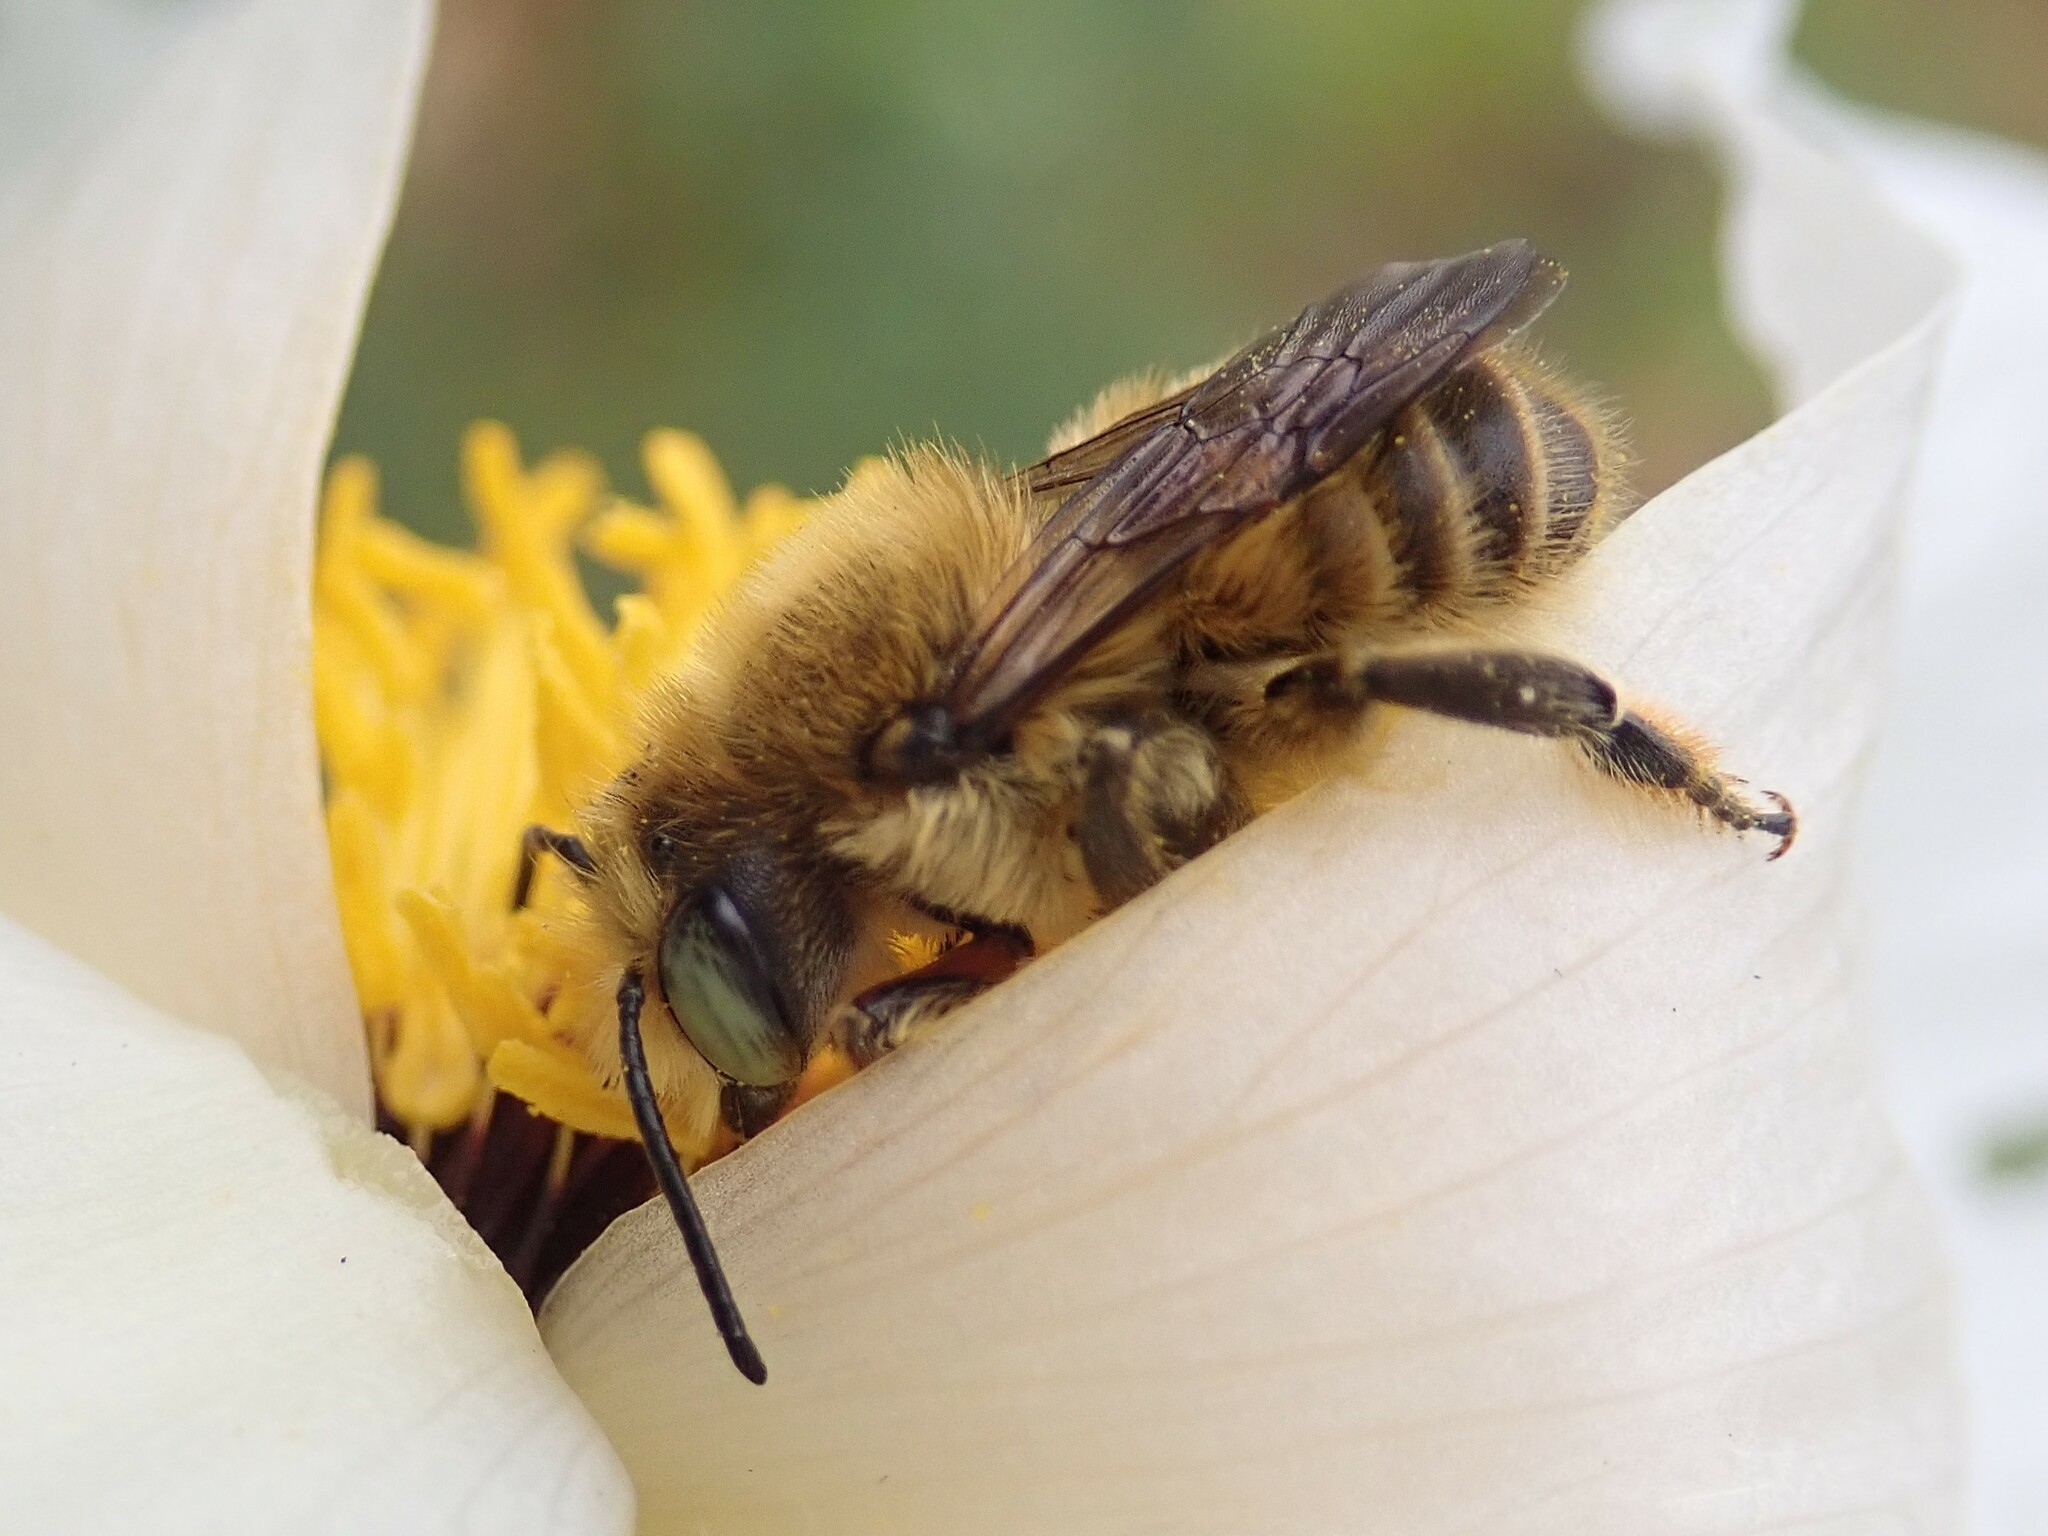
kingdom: Animalia
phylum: Arthropoda
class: Insecta
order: Hymenoptera
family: Megachilidae
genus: Megachile
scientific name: Megachile perihirta
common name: Western leafcutter
